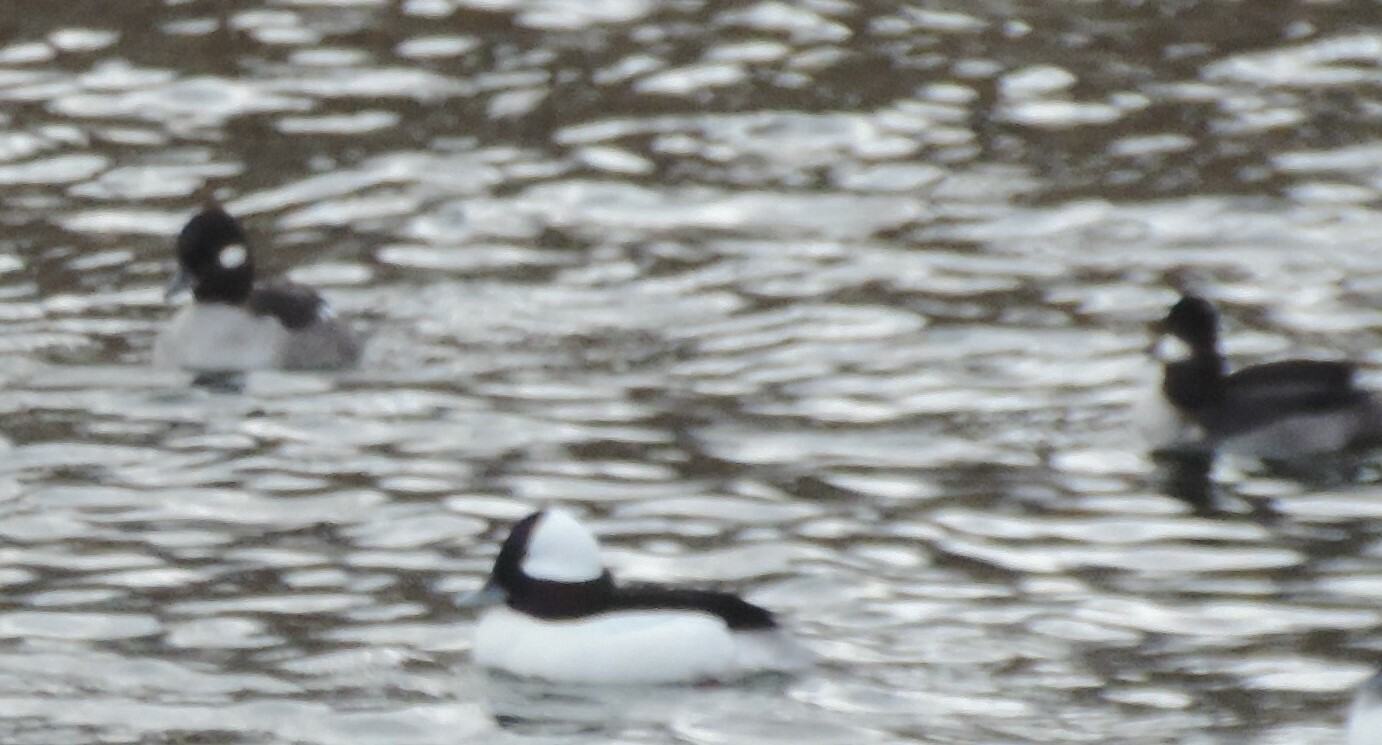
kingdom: Animalia
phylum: Chordata
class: Aves
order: Anseriformes
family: Anatidae
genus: Bucephala
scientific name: Bucephala albeola
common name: Bufflehead
